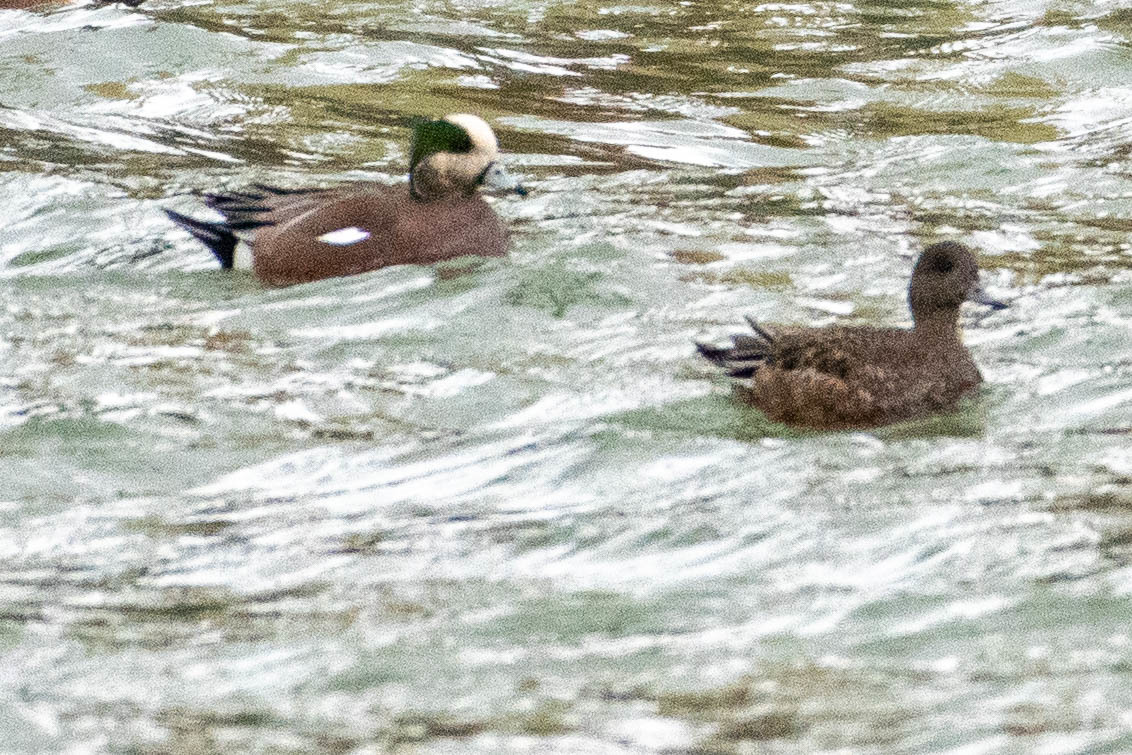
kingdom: Animalia
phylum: Chordata
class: Aves
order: Anseriformes
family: Anatidae
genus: Mareca
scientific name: Mareca americana
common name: American wigeon
